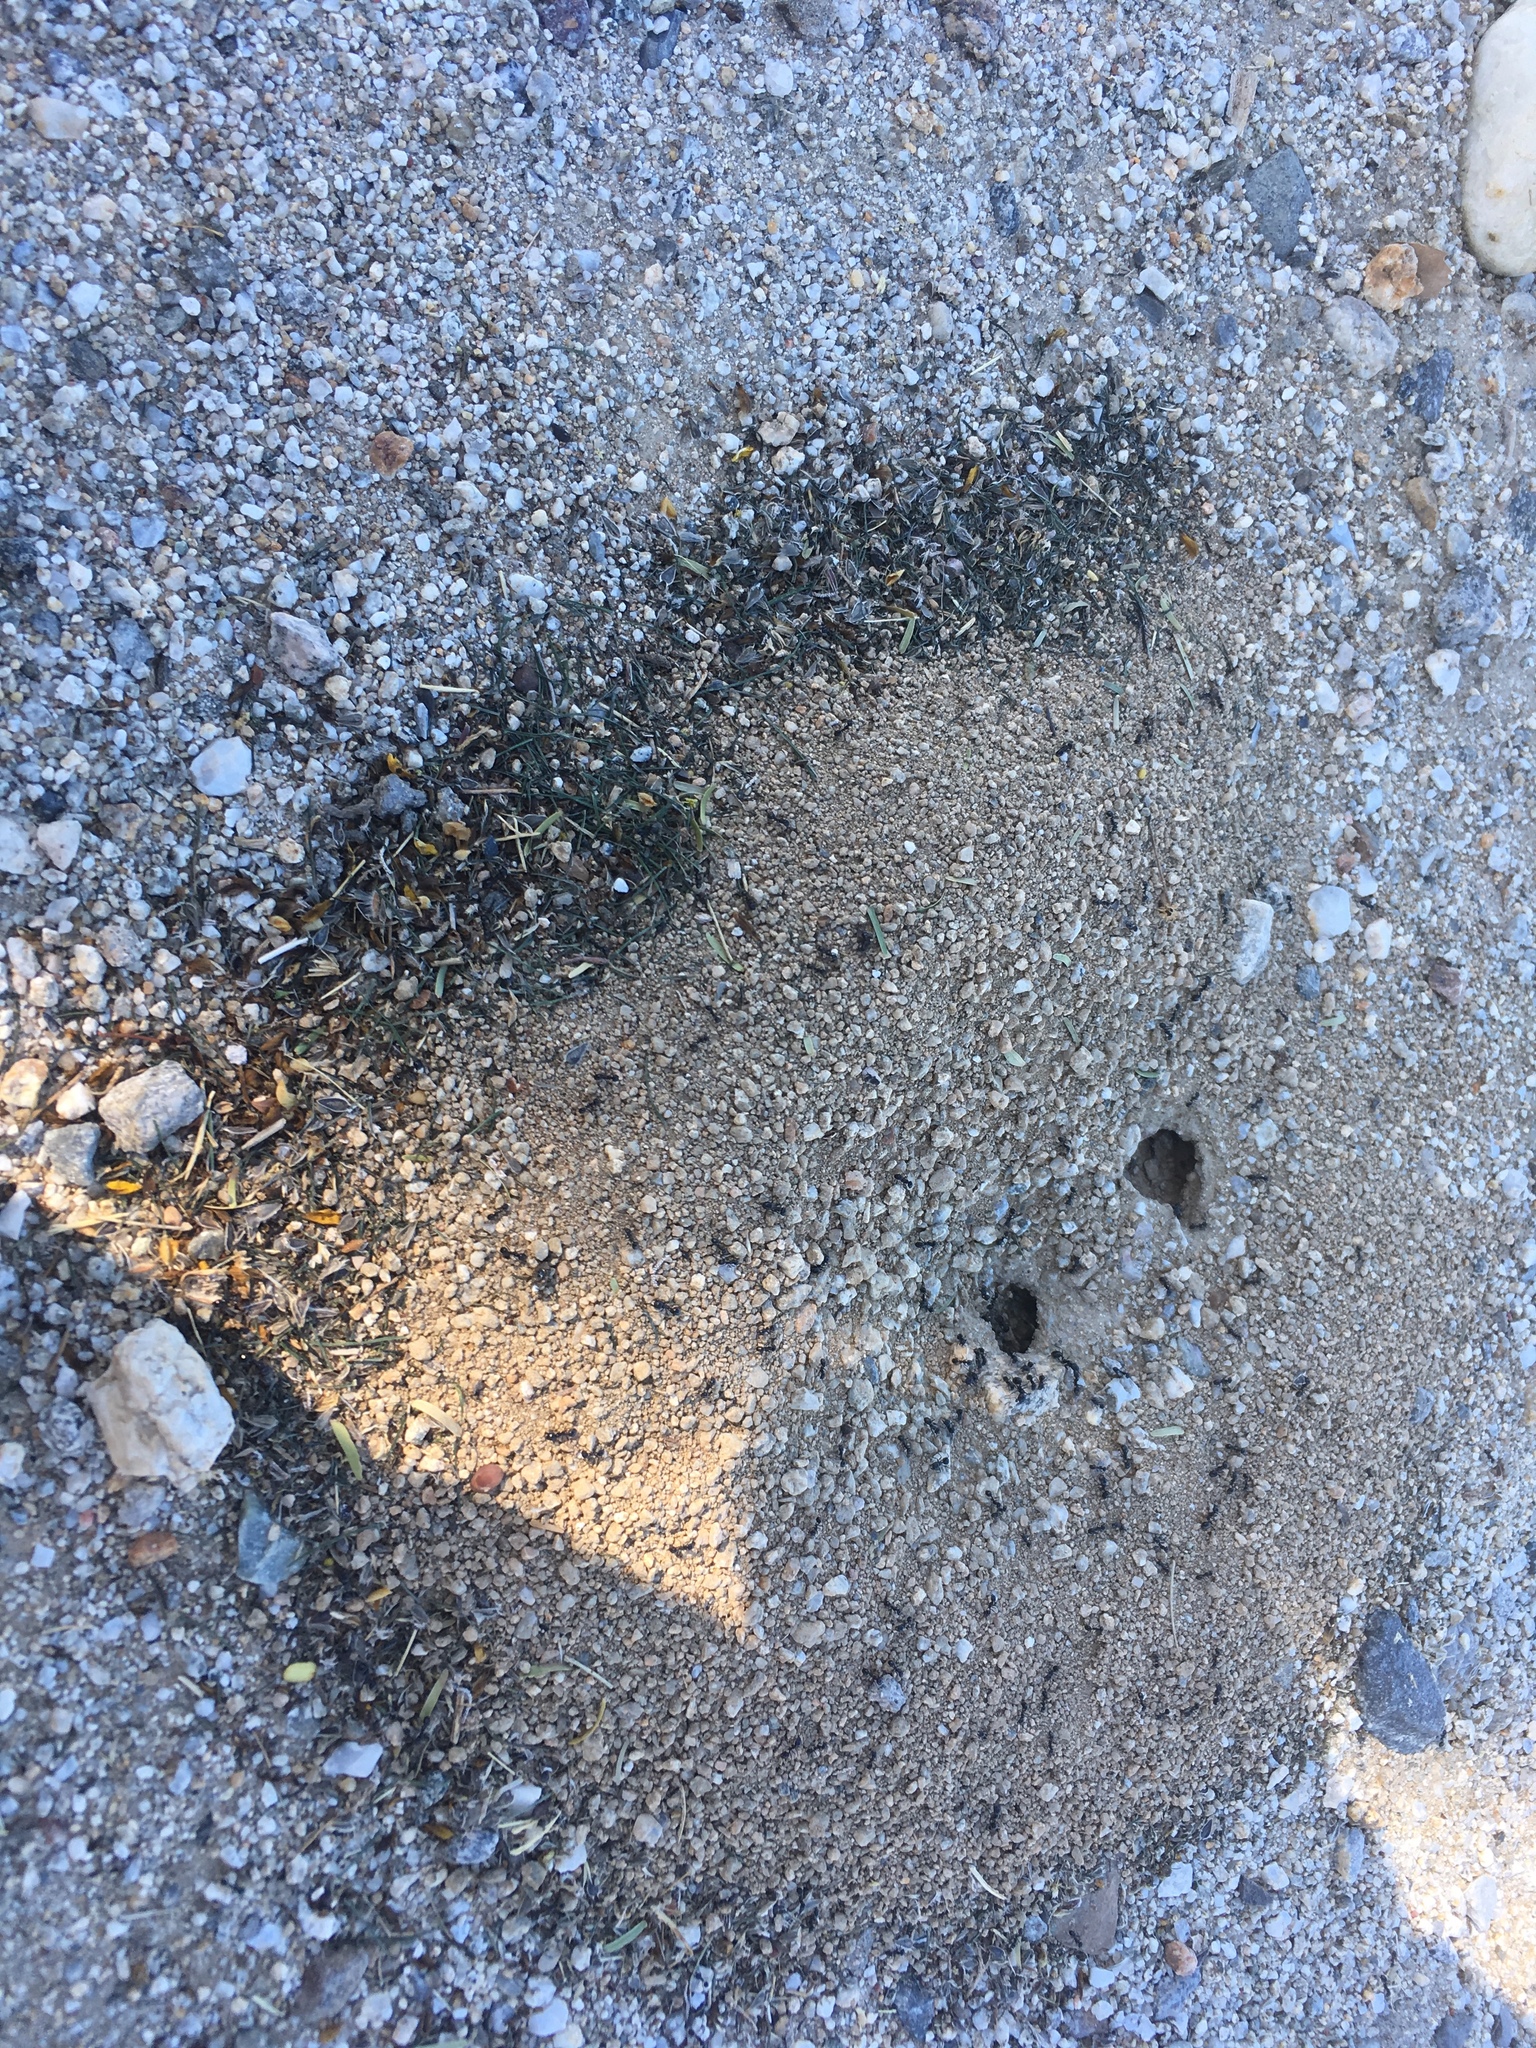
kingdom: Animalia
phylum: Arthropoda
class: Insecta
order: Hymenoptera
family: Formicidae
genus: Messor
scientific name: Messor pergandei
